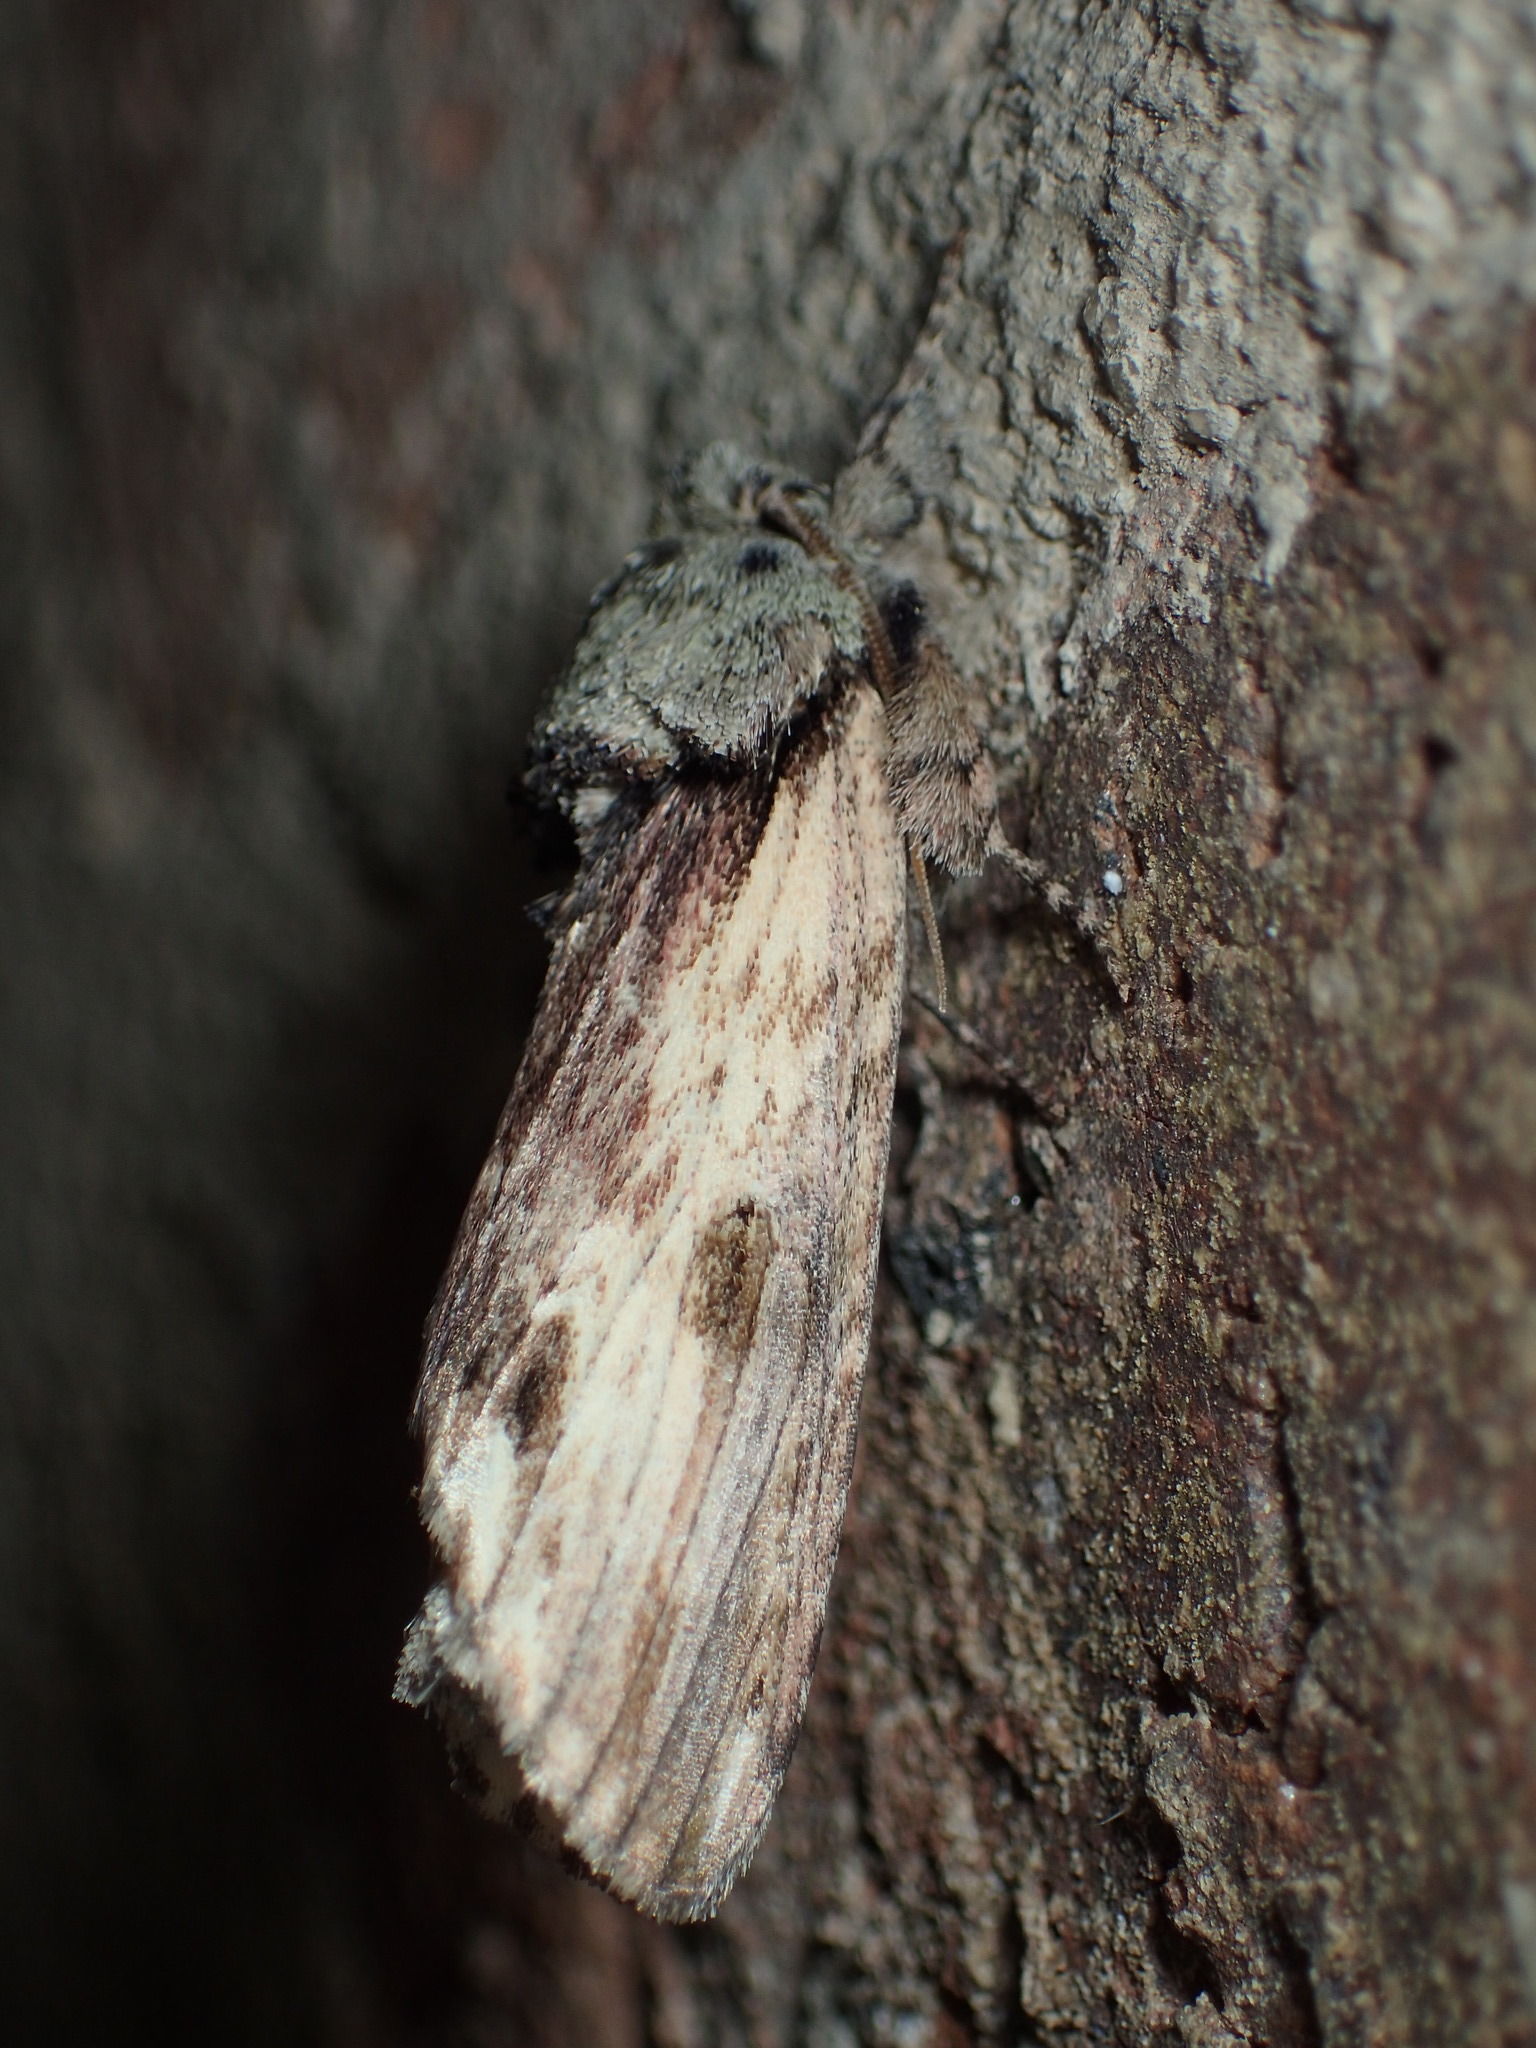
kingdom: Animalia
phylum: Arthropoda
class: Insecta
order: Lepidoptera
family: Notodontidae
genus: Schizura
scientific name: Schizura
